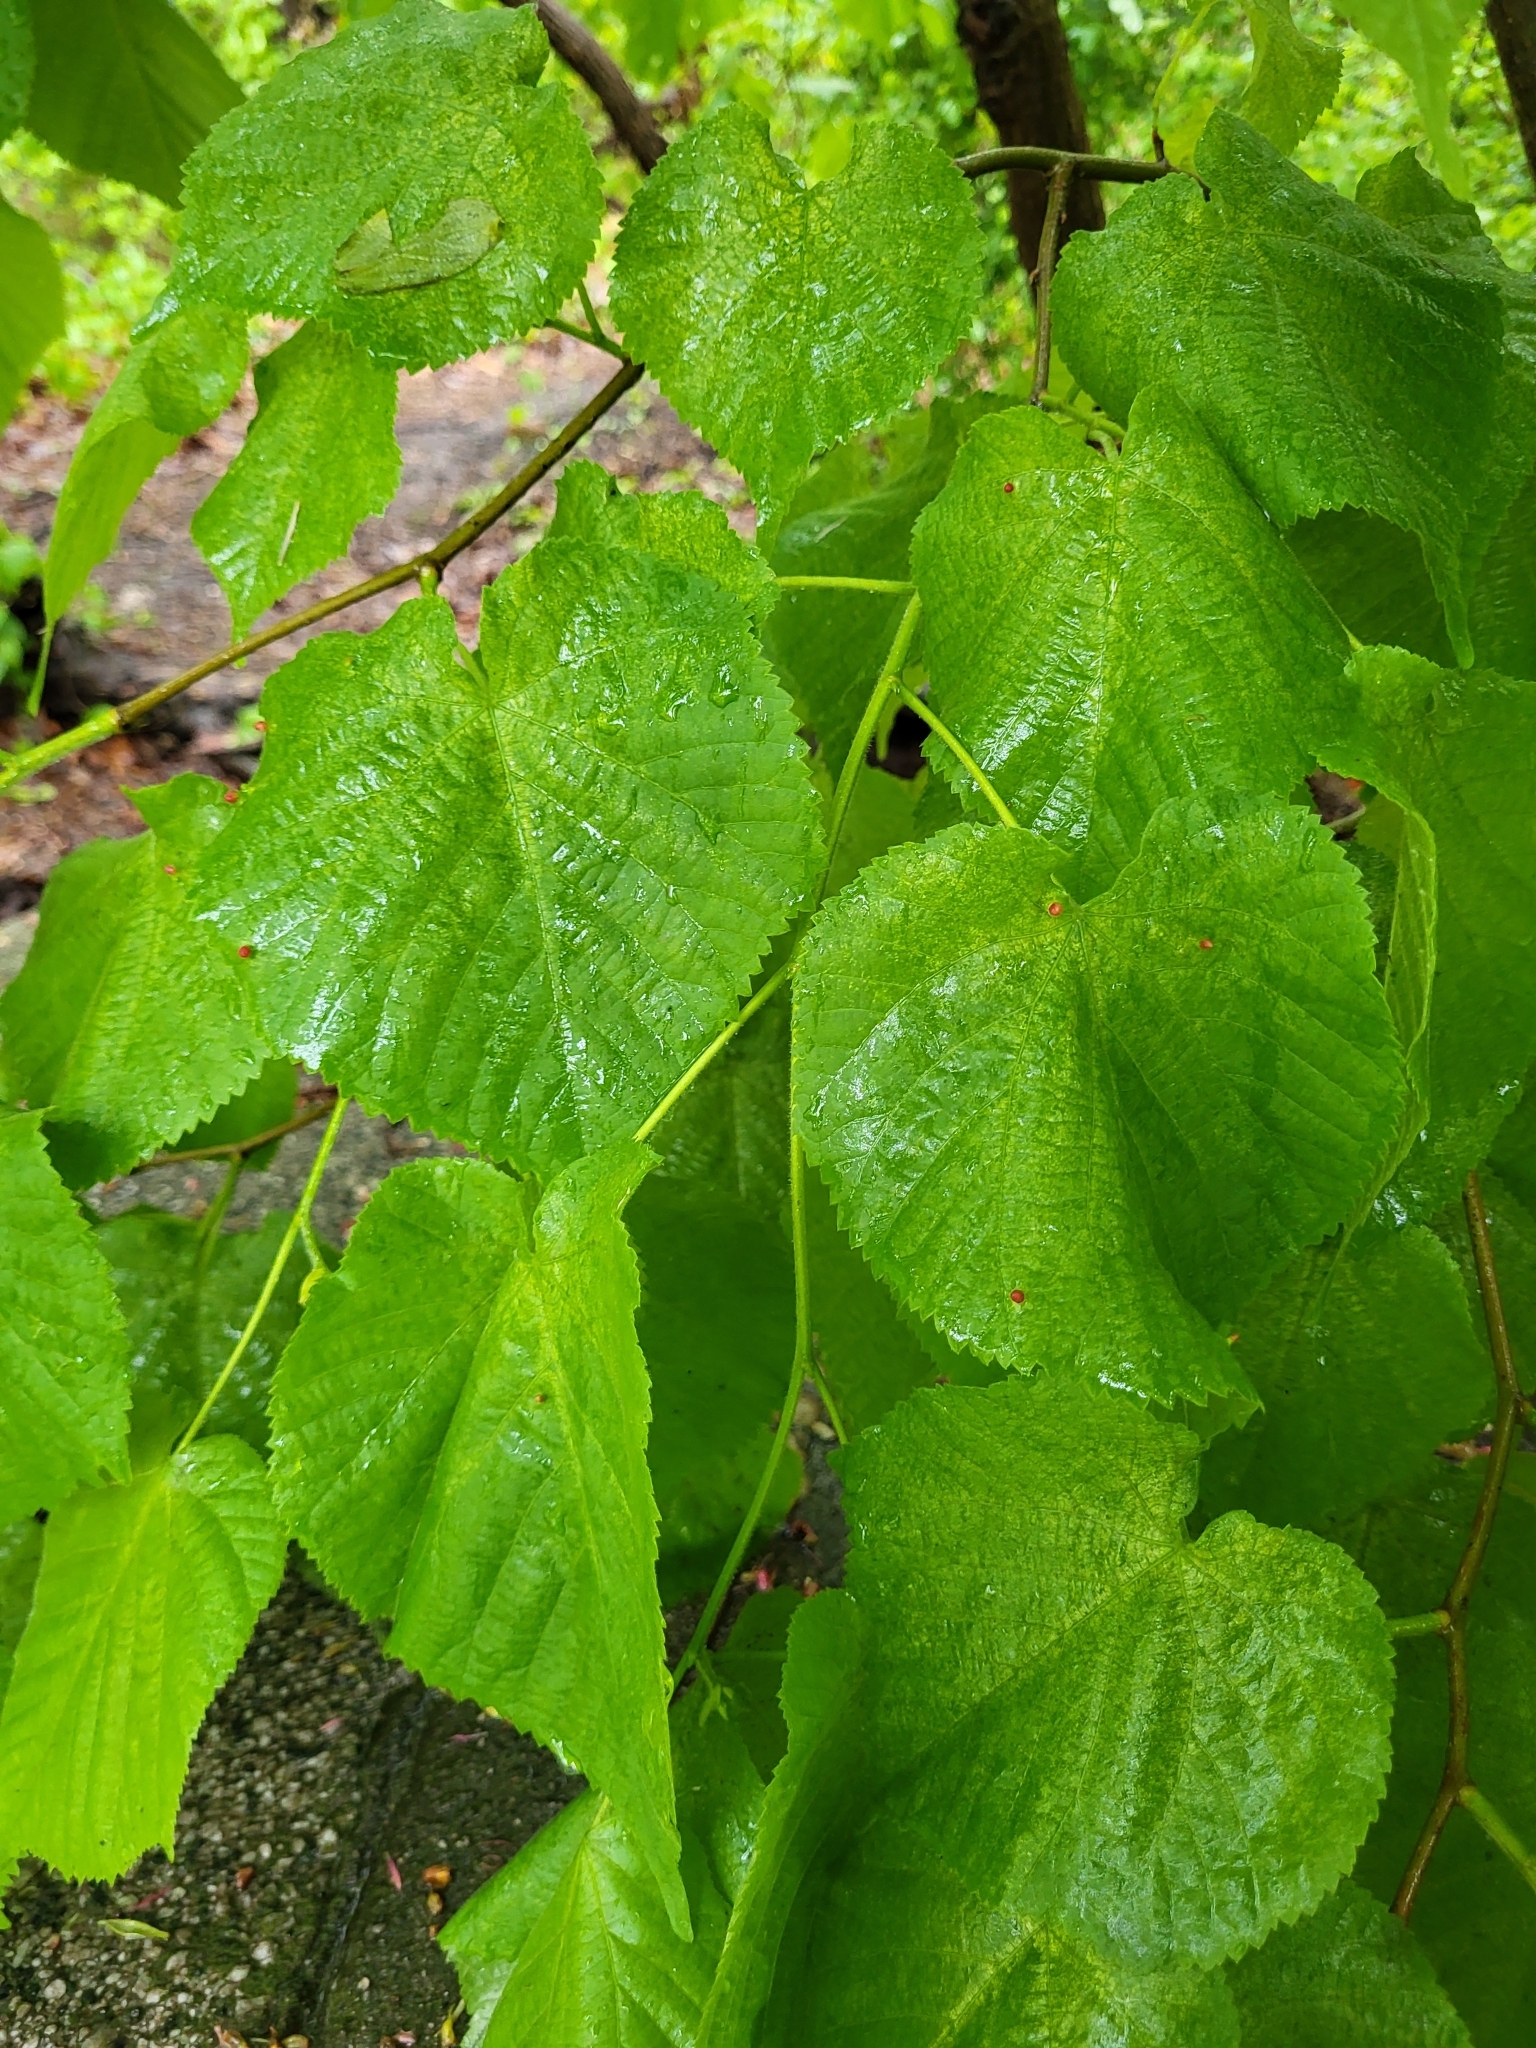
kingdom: Plantae
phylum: Tracheophyta
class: Magnoliopsida
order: Malvales
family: Malvaceae
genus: Tilia
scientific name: Tilia americana
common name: Basswood
